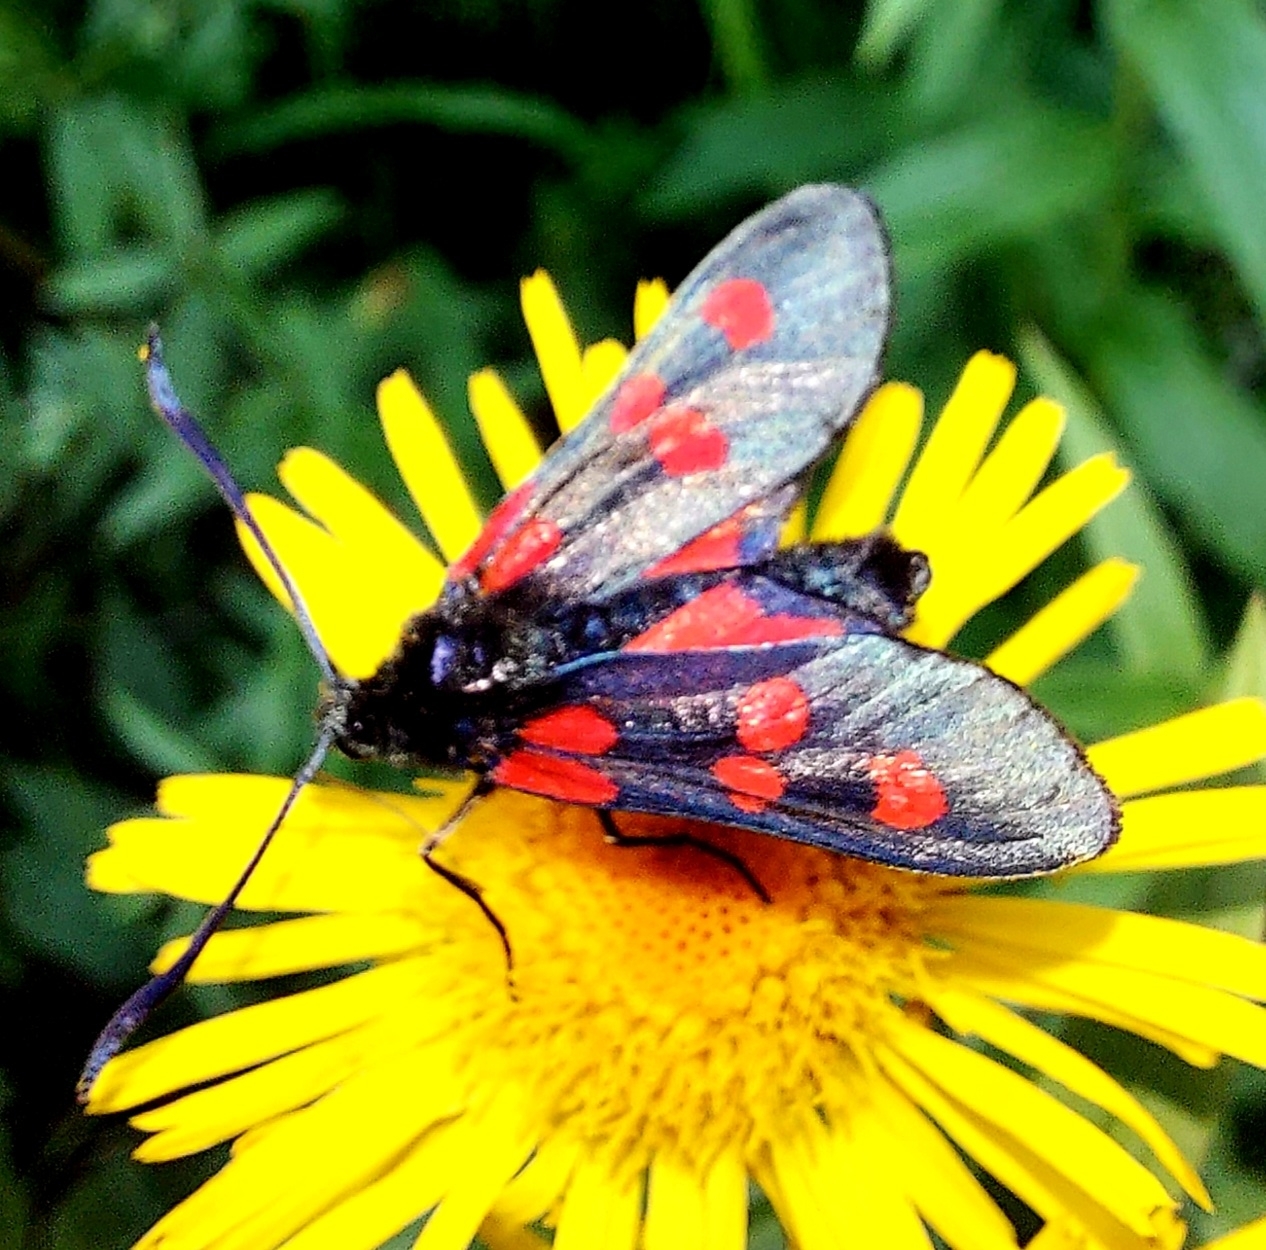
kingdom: Animalia
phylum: Arthropoda
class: Insecta
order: Lepidoptera
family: Zygaenidae
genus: Zygaena
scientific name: Zygaena lonicerae
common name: Narrow-bordered five-spot burnet
